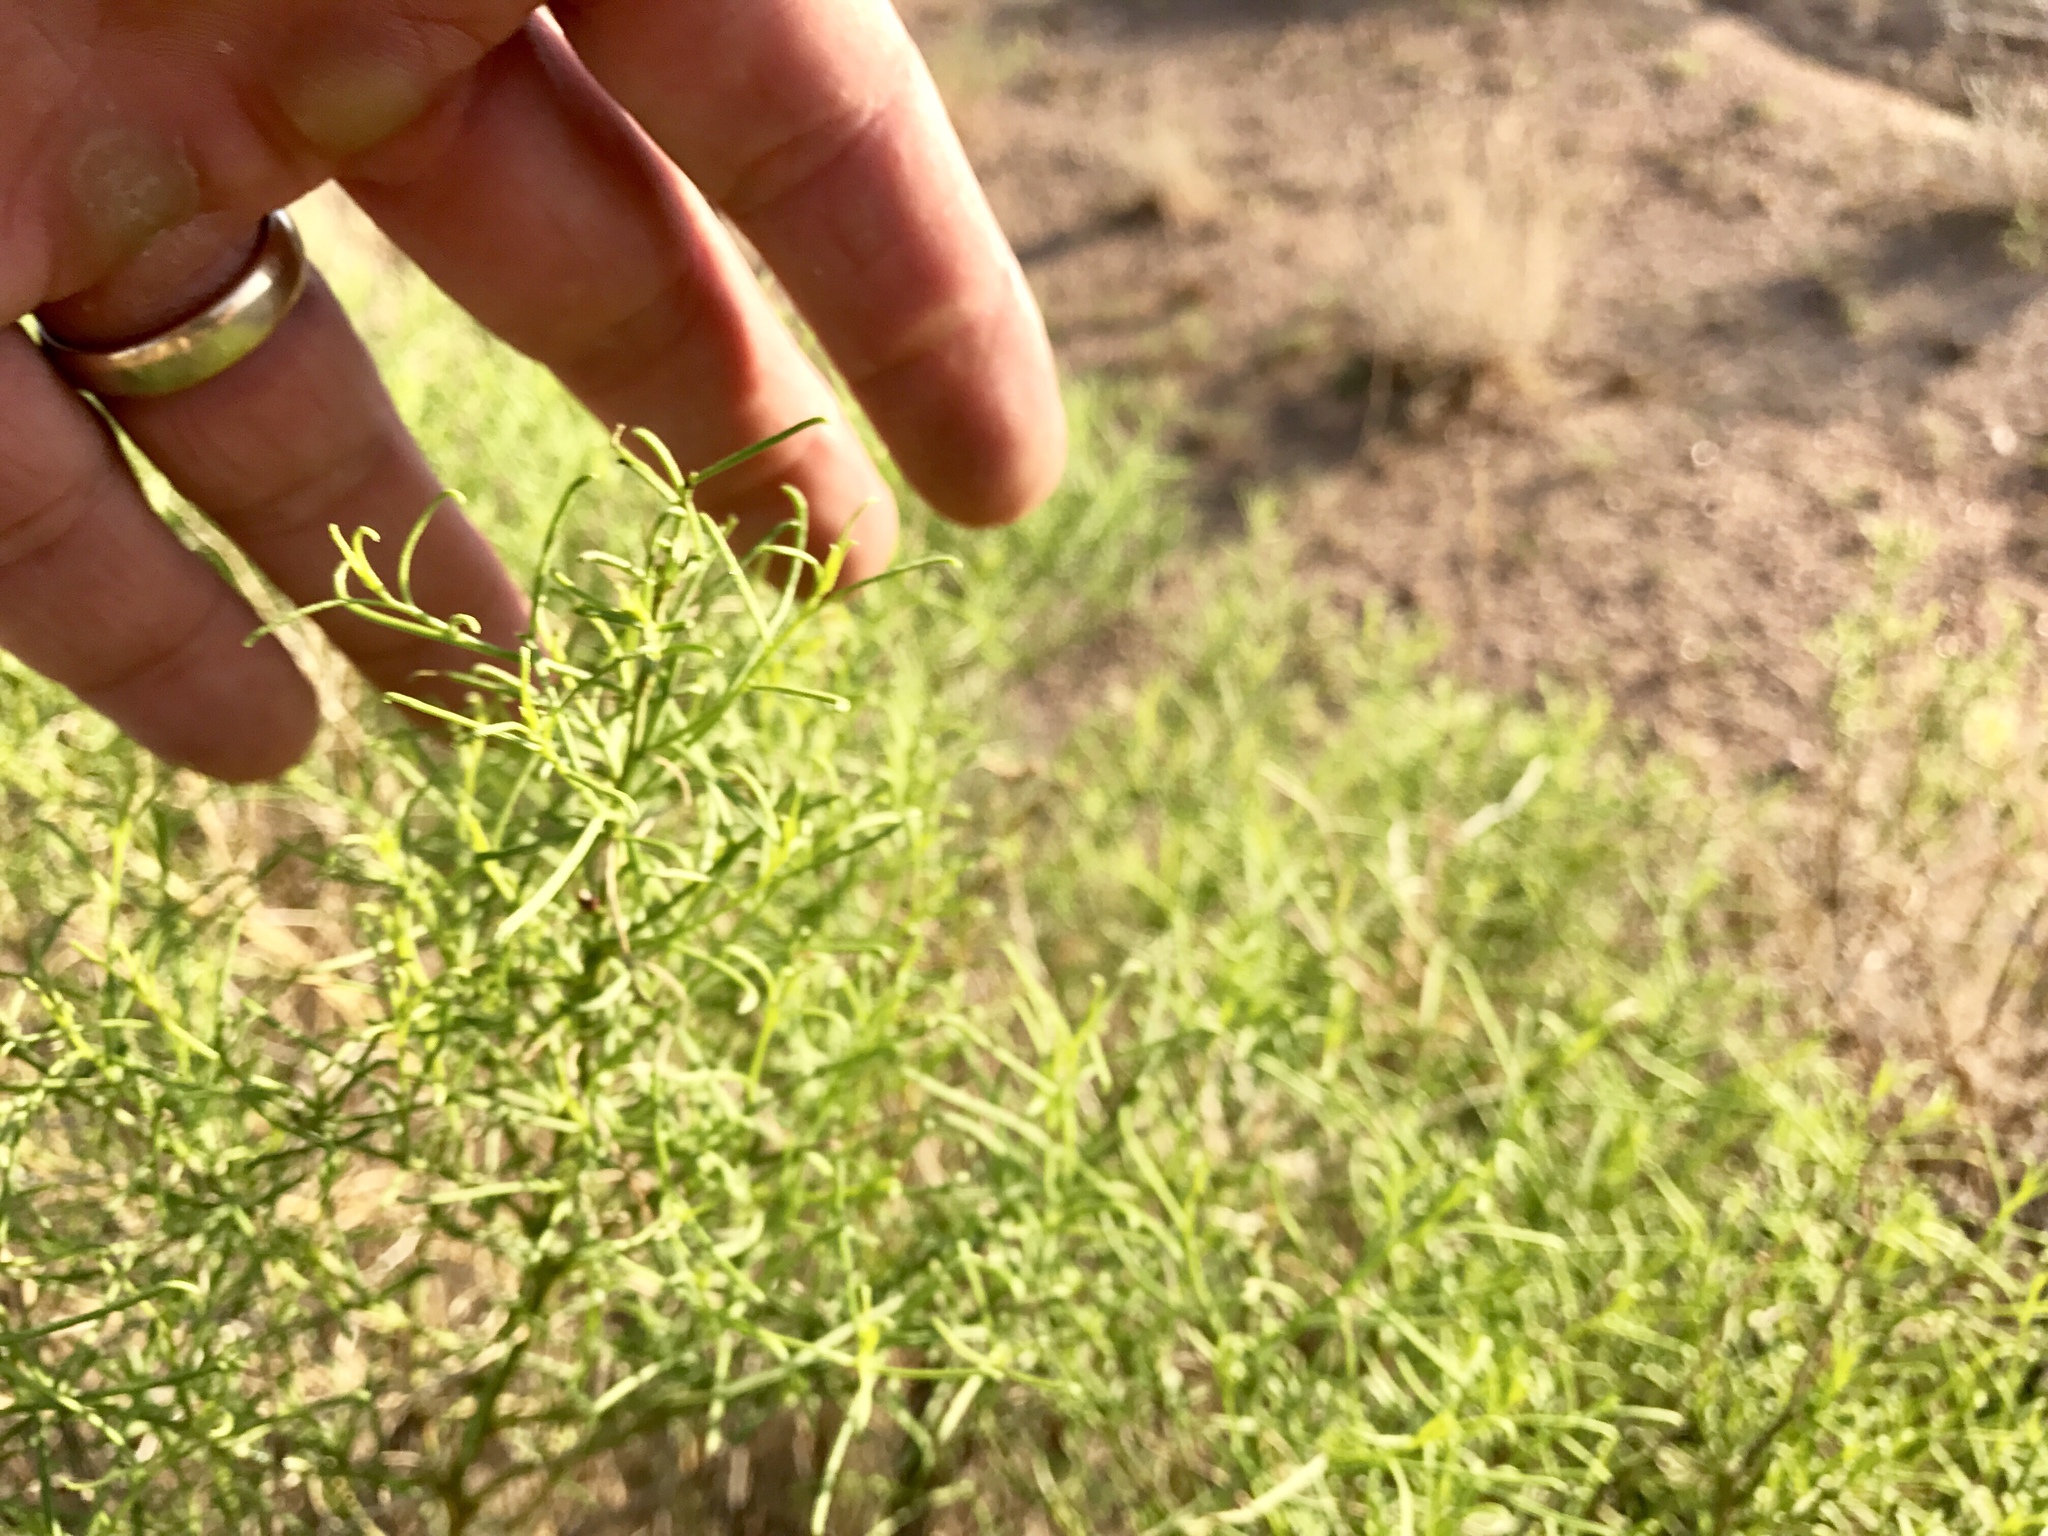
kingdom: Plantae
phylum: Tracheophyta
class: Magnoliopsida
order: Asterales
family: Asteraceae
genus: Ambrosia
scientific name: Ambrosia salsola
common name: Burrobrush
